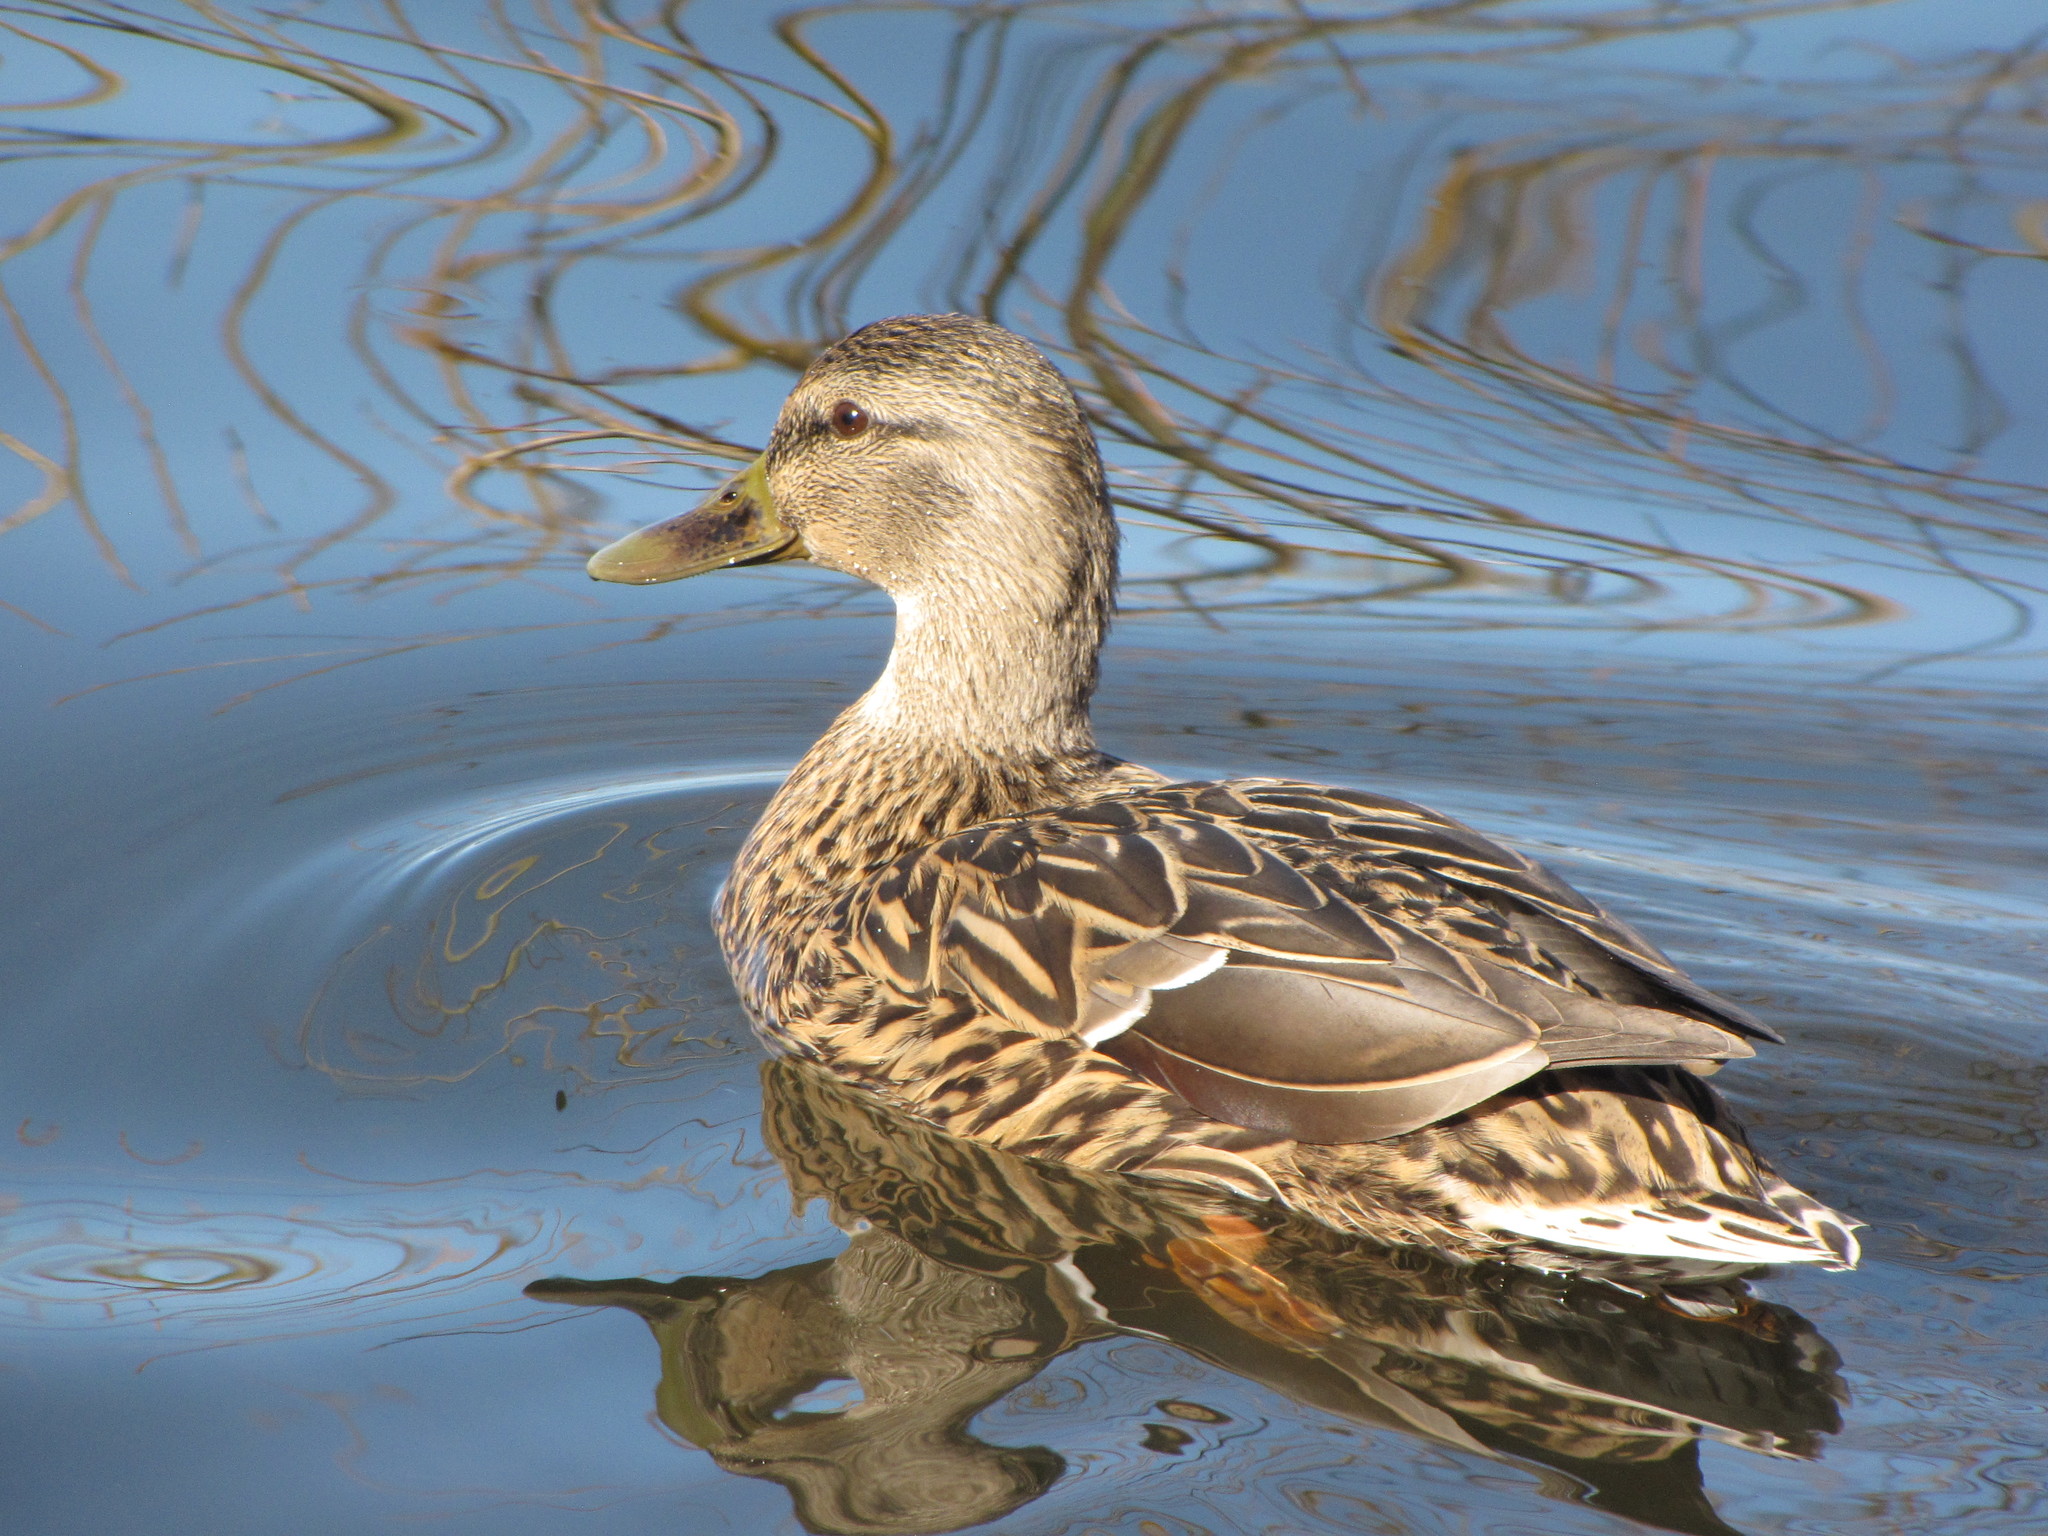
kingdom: Animalia
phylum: Chordata
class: Aves
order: Anseriformes
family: Anatidae
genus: Anas
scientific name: Anas platyrhynchos
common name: Mallard
